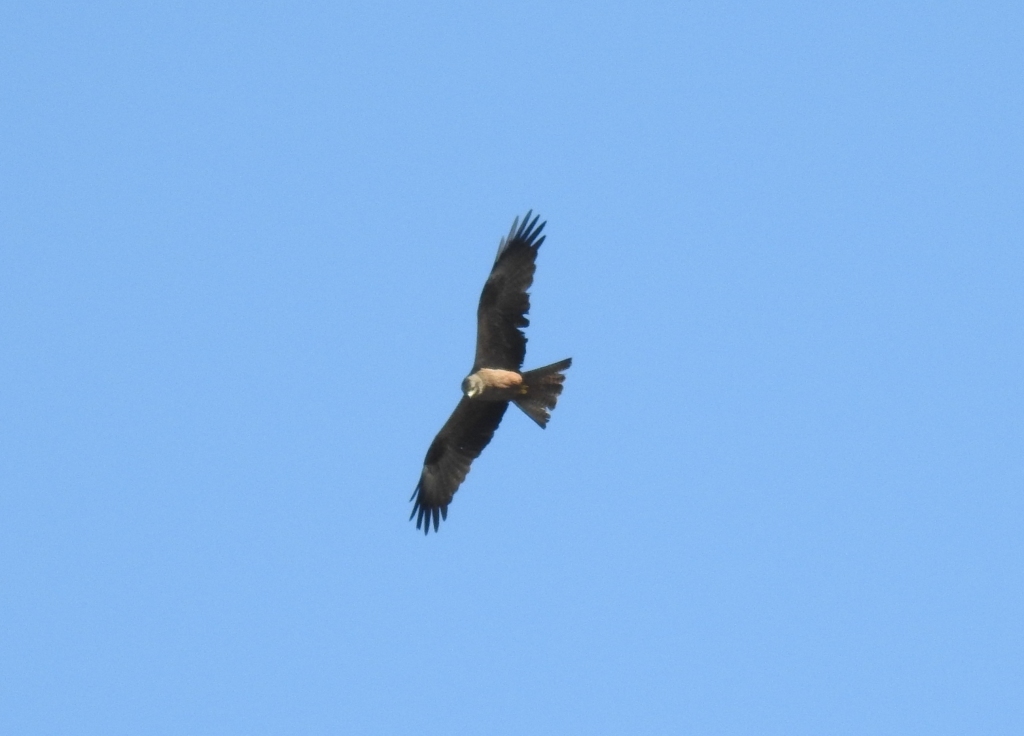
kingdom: Animalia
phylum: Chordata
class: Aves
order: Accipitriformes
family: Accipitridae
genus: Milvus
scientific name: Milvus migrans
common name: Black kite
